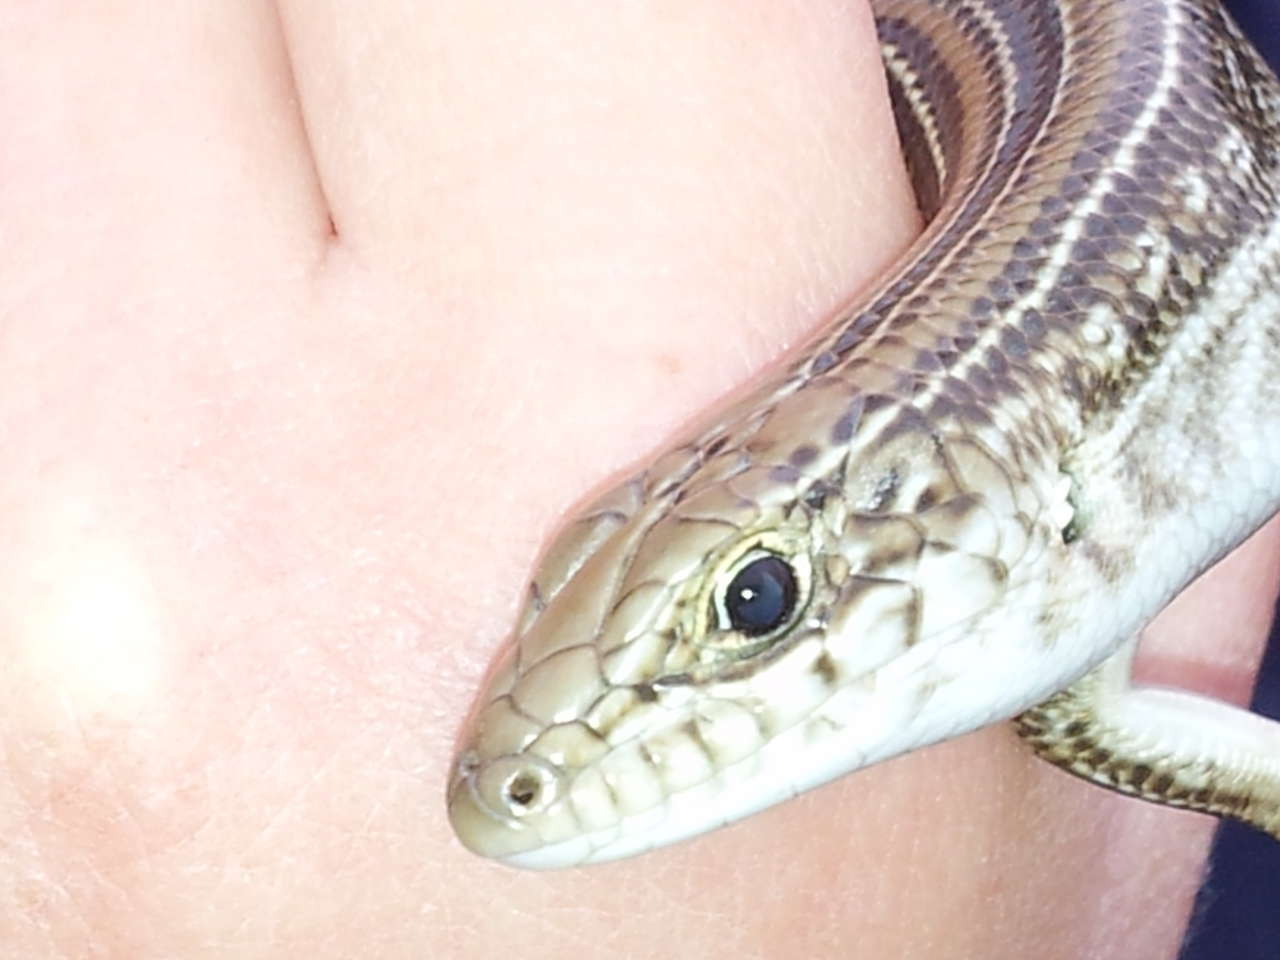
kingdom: Animalia
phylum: Chordata
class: Squamata
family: Scincidae
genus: Ctenotus
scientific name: Ctenotus robustus
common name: Robust ctenotus
